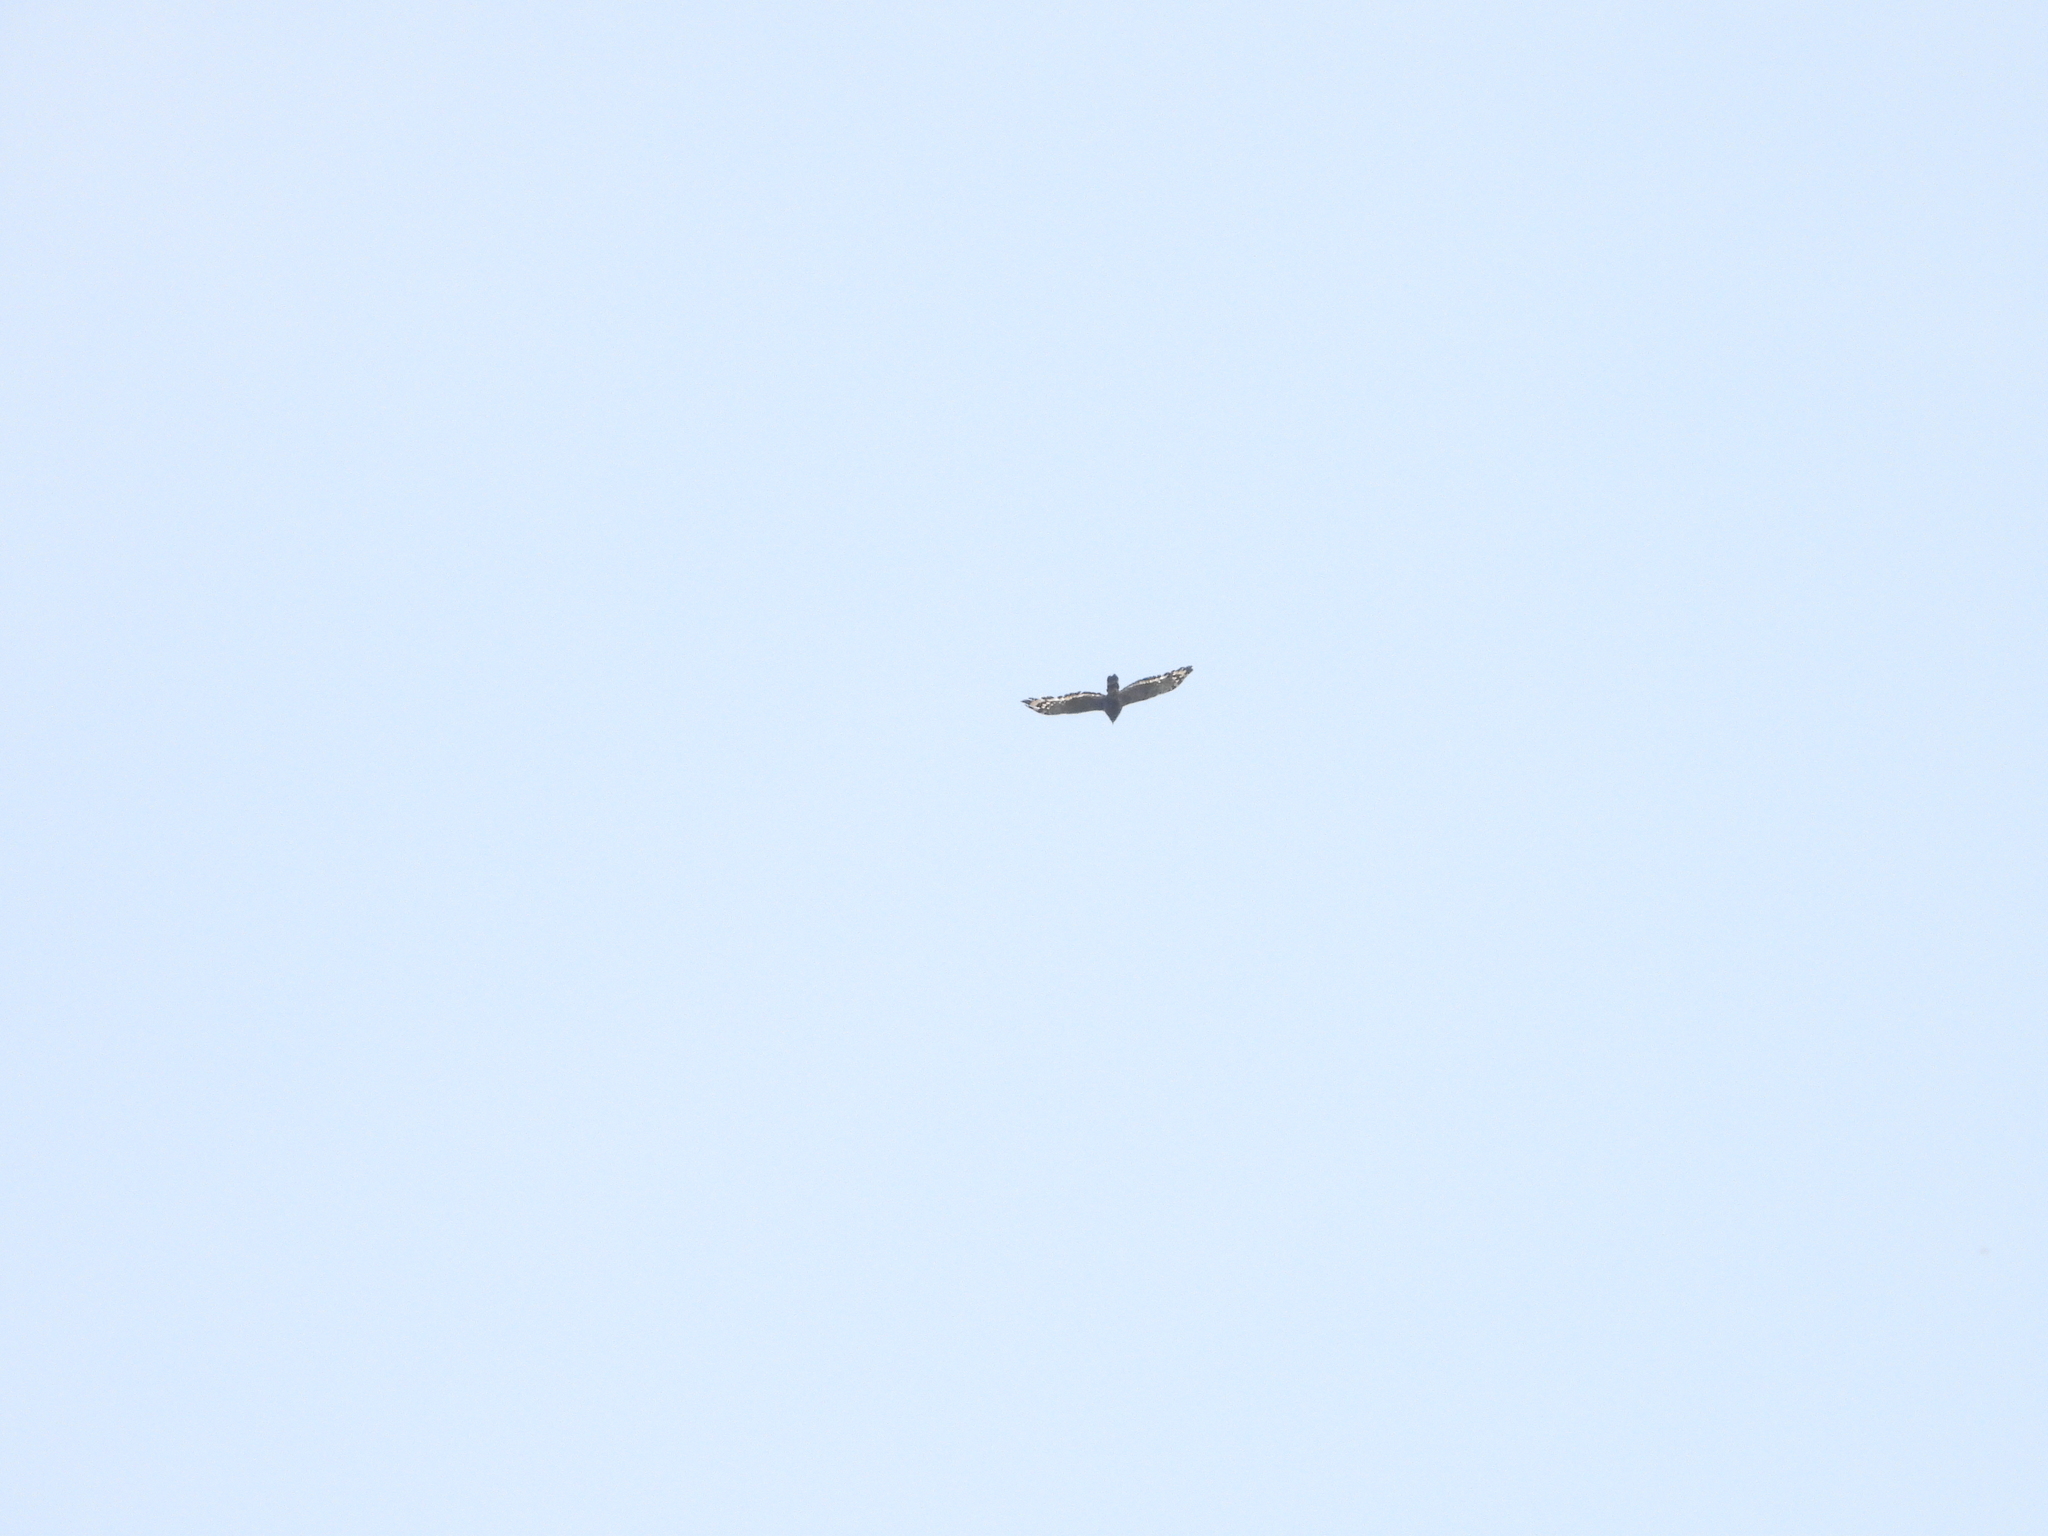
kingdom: Animalia
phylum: Chordata
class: Aves
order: Accipitriformes
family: Accipitridae
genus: Spilornis
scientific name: Spilornis cheela
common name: Crested serpent eagle
